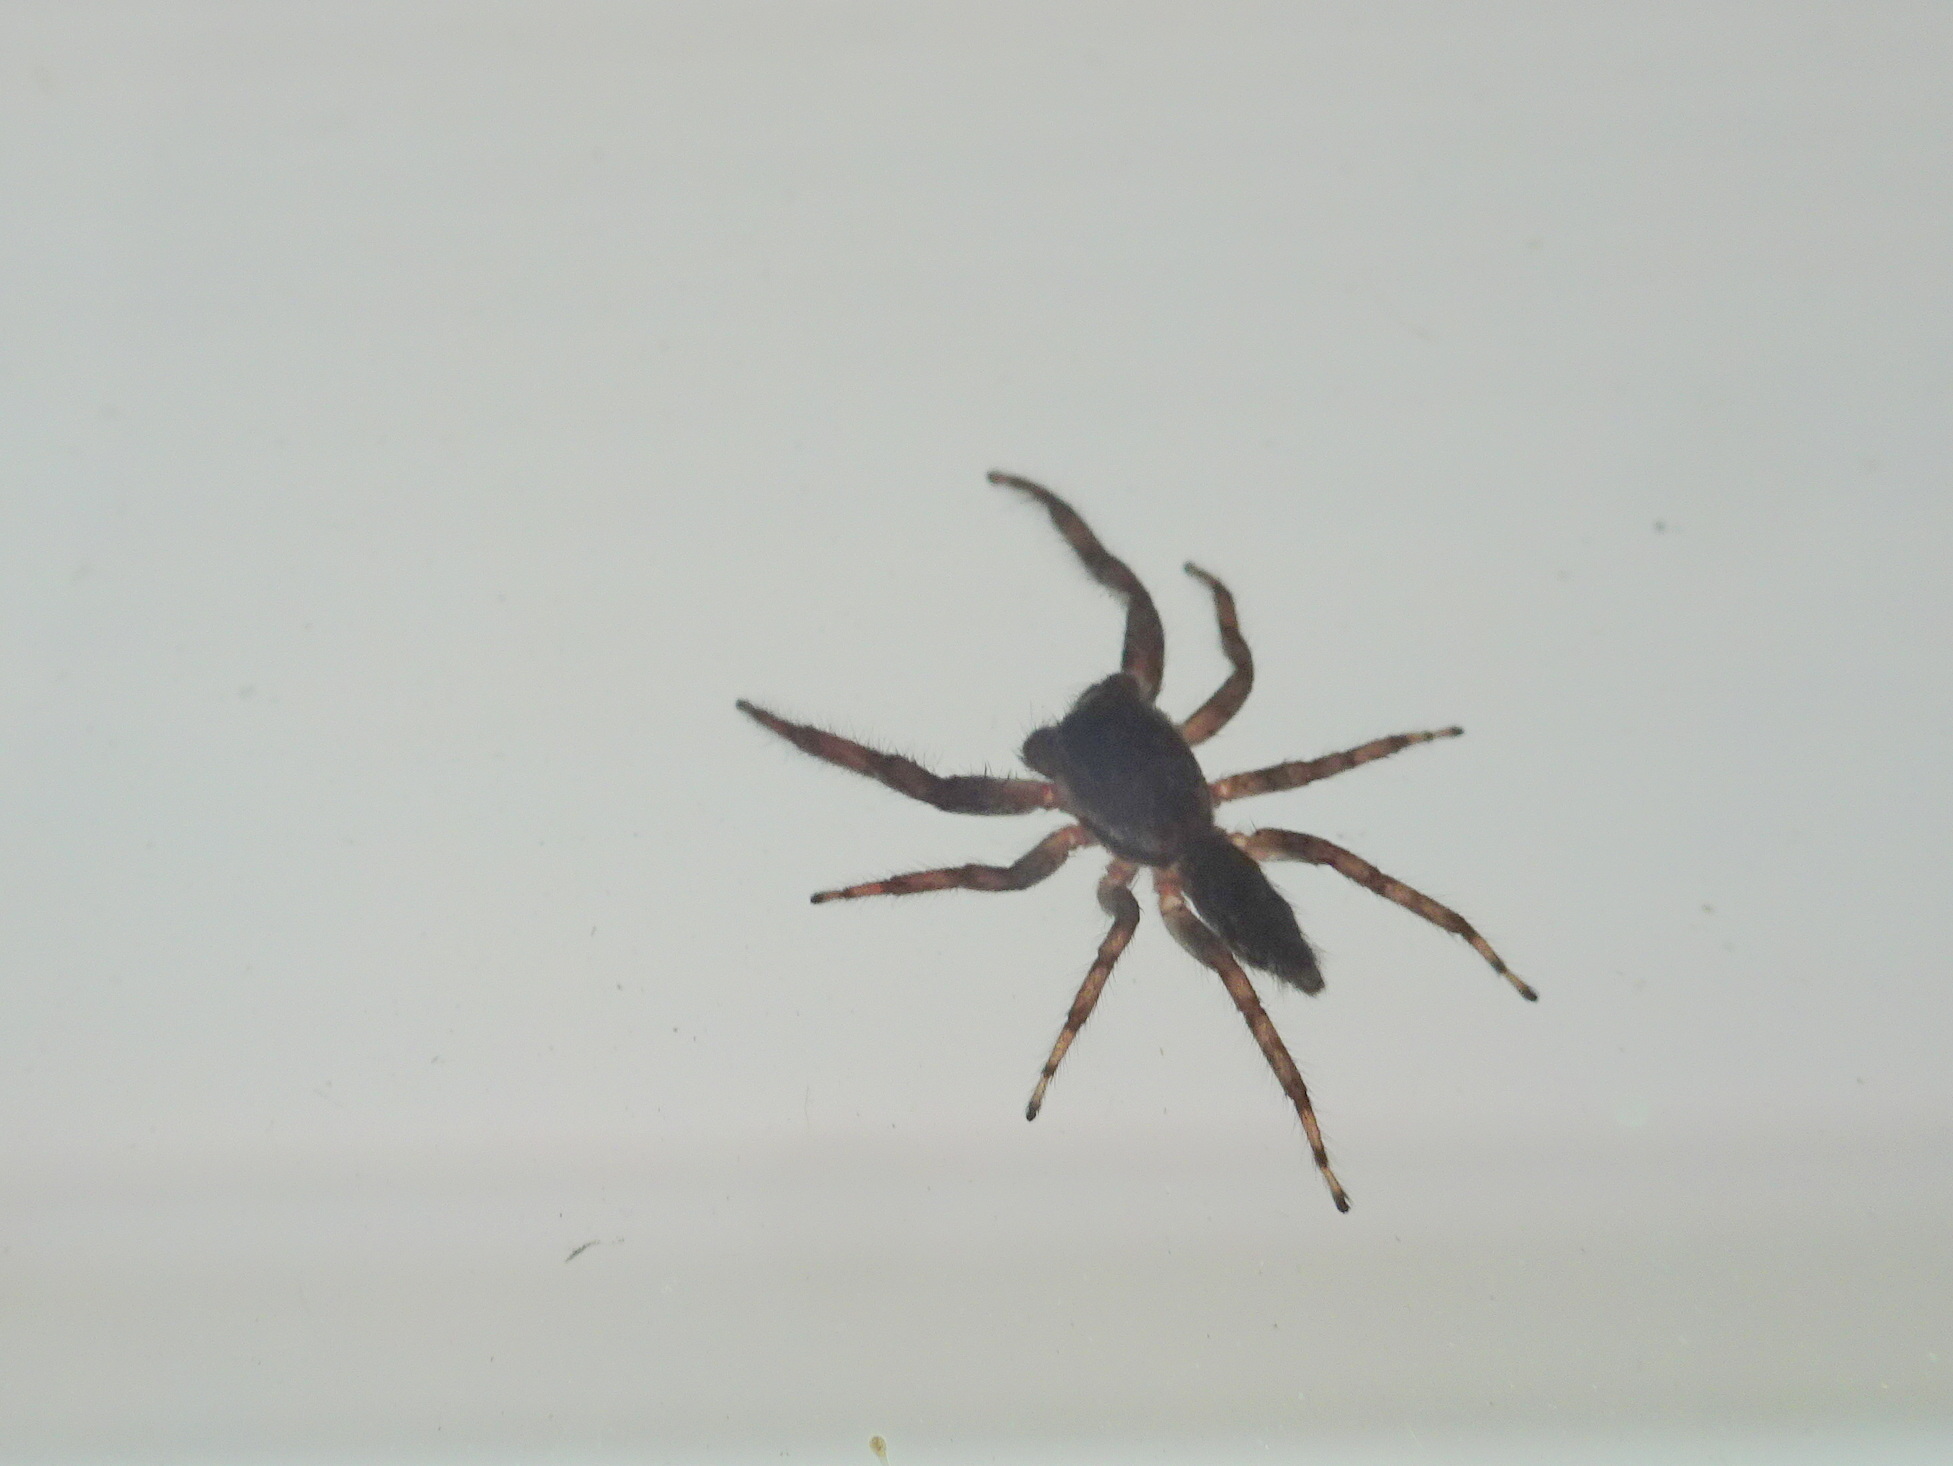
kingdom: Animalia
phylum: Arthropoda
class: Arachnida
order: Araneae
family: Salticidae
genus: Platycryptus
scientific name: Platycryptus undatus
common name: Tan jumping spider
